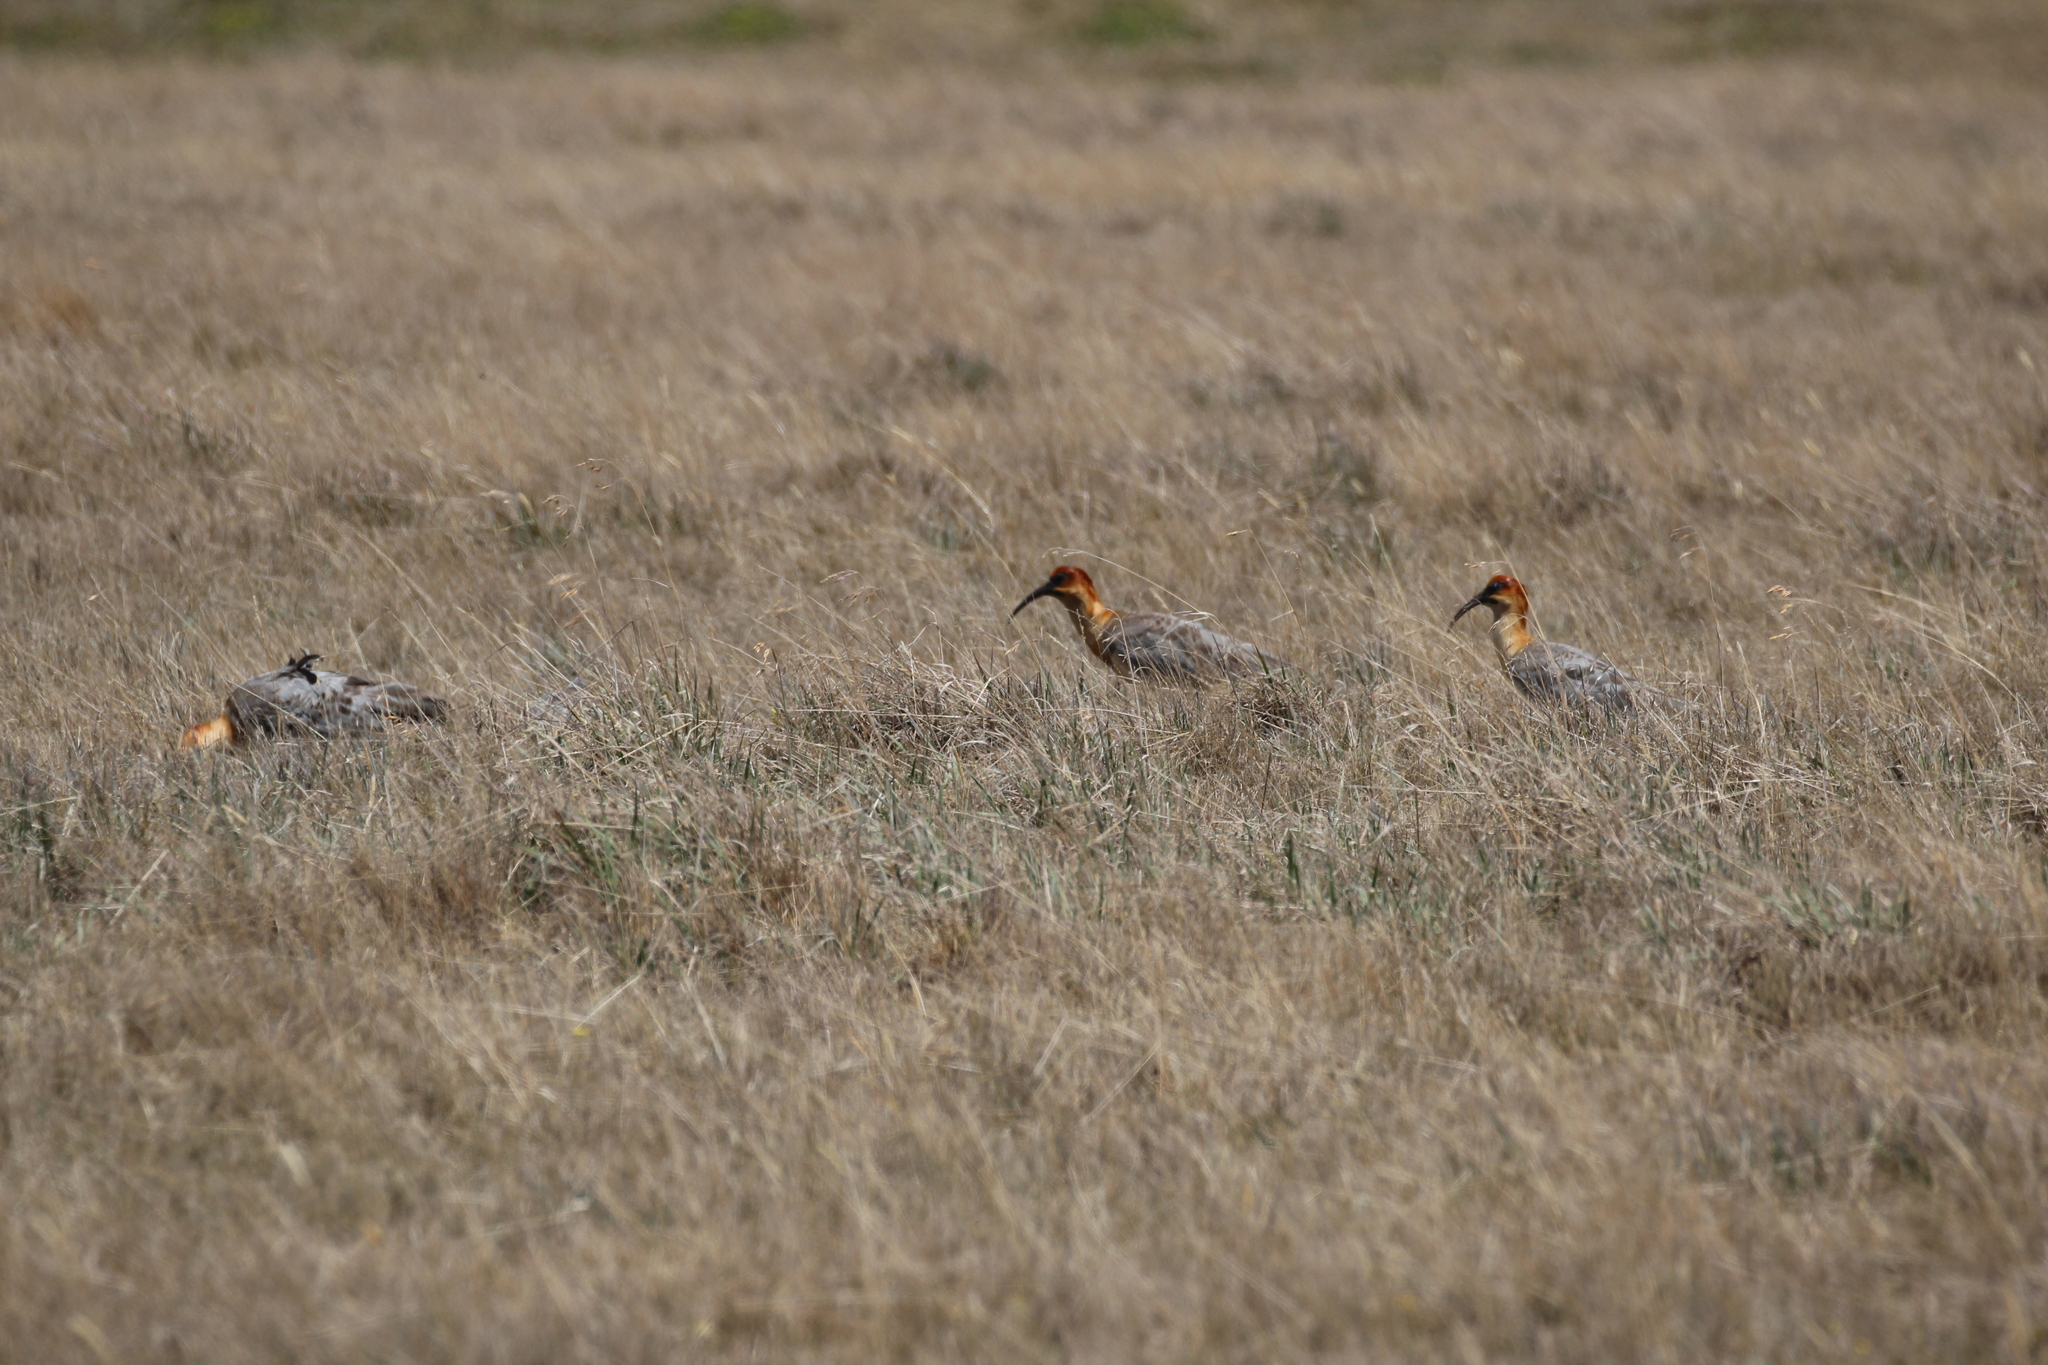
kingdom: Animalia
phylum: Chordata
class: Aves
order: Pelecaniformes
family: Threskiornithidae
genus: Theristicus
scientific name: Theristicus melanopis
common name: Black-faced ibis
